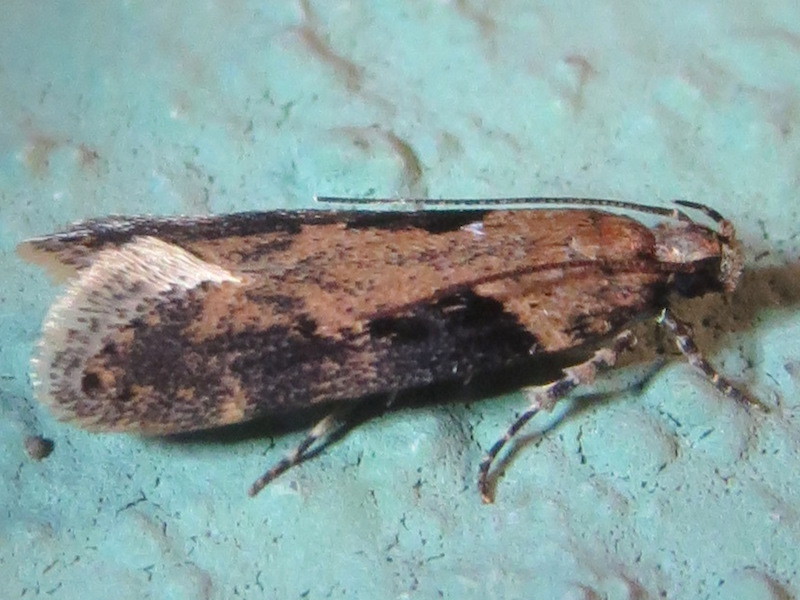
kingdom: Animalia
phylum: Arthropoda
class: Insecta
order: Lepidoptera
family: Gelechiidae
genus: Chionodes
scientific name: Chionodes mediofuscella
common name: Black-smudged chionodes moth
